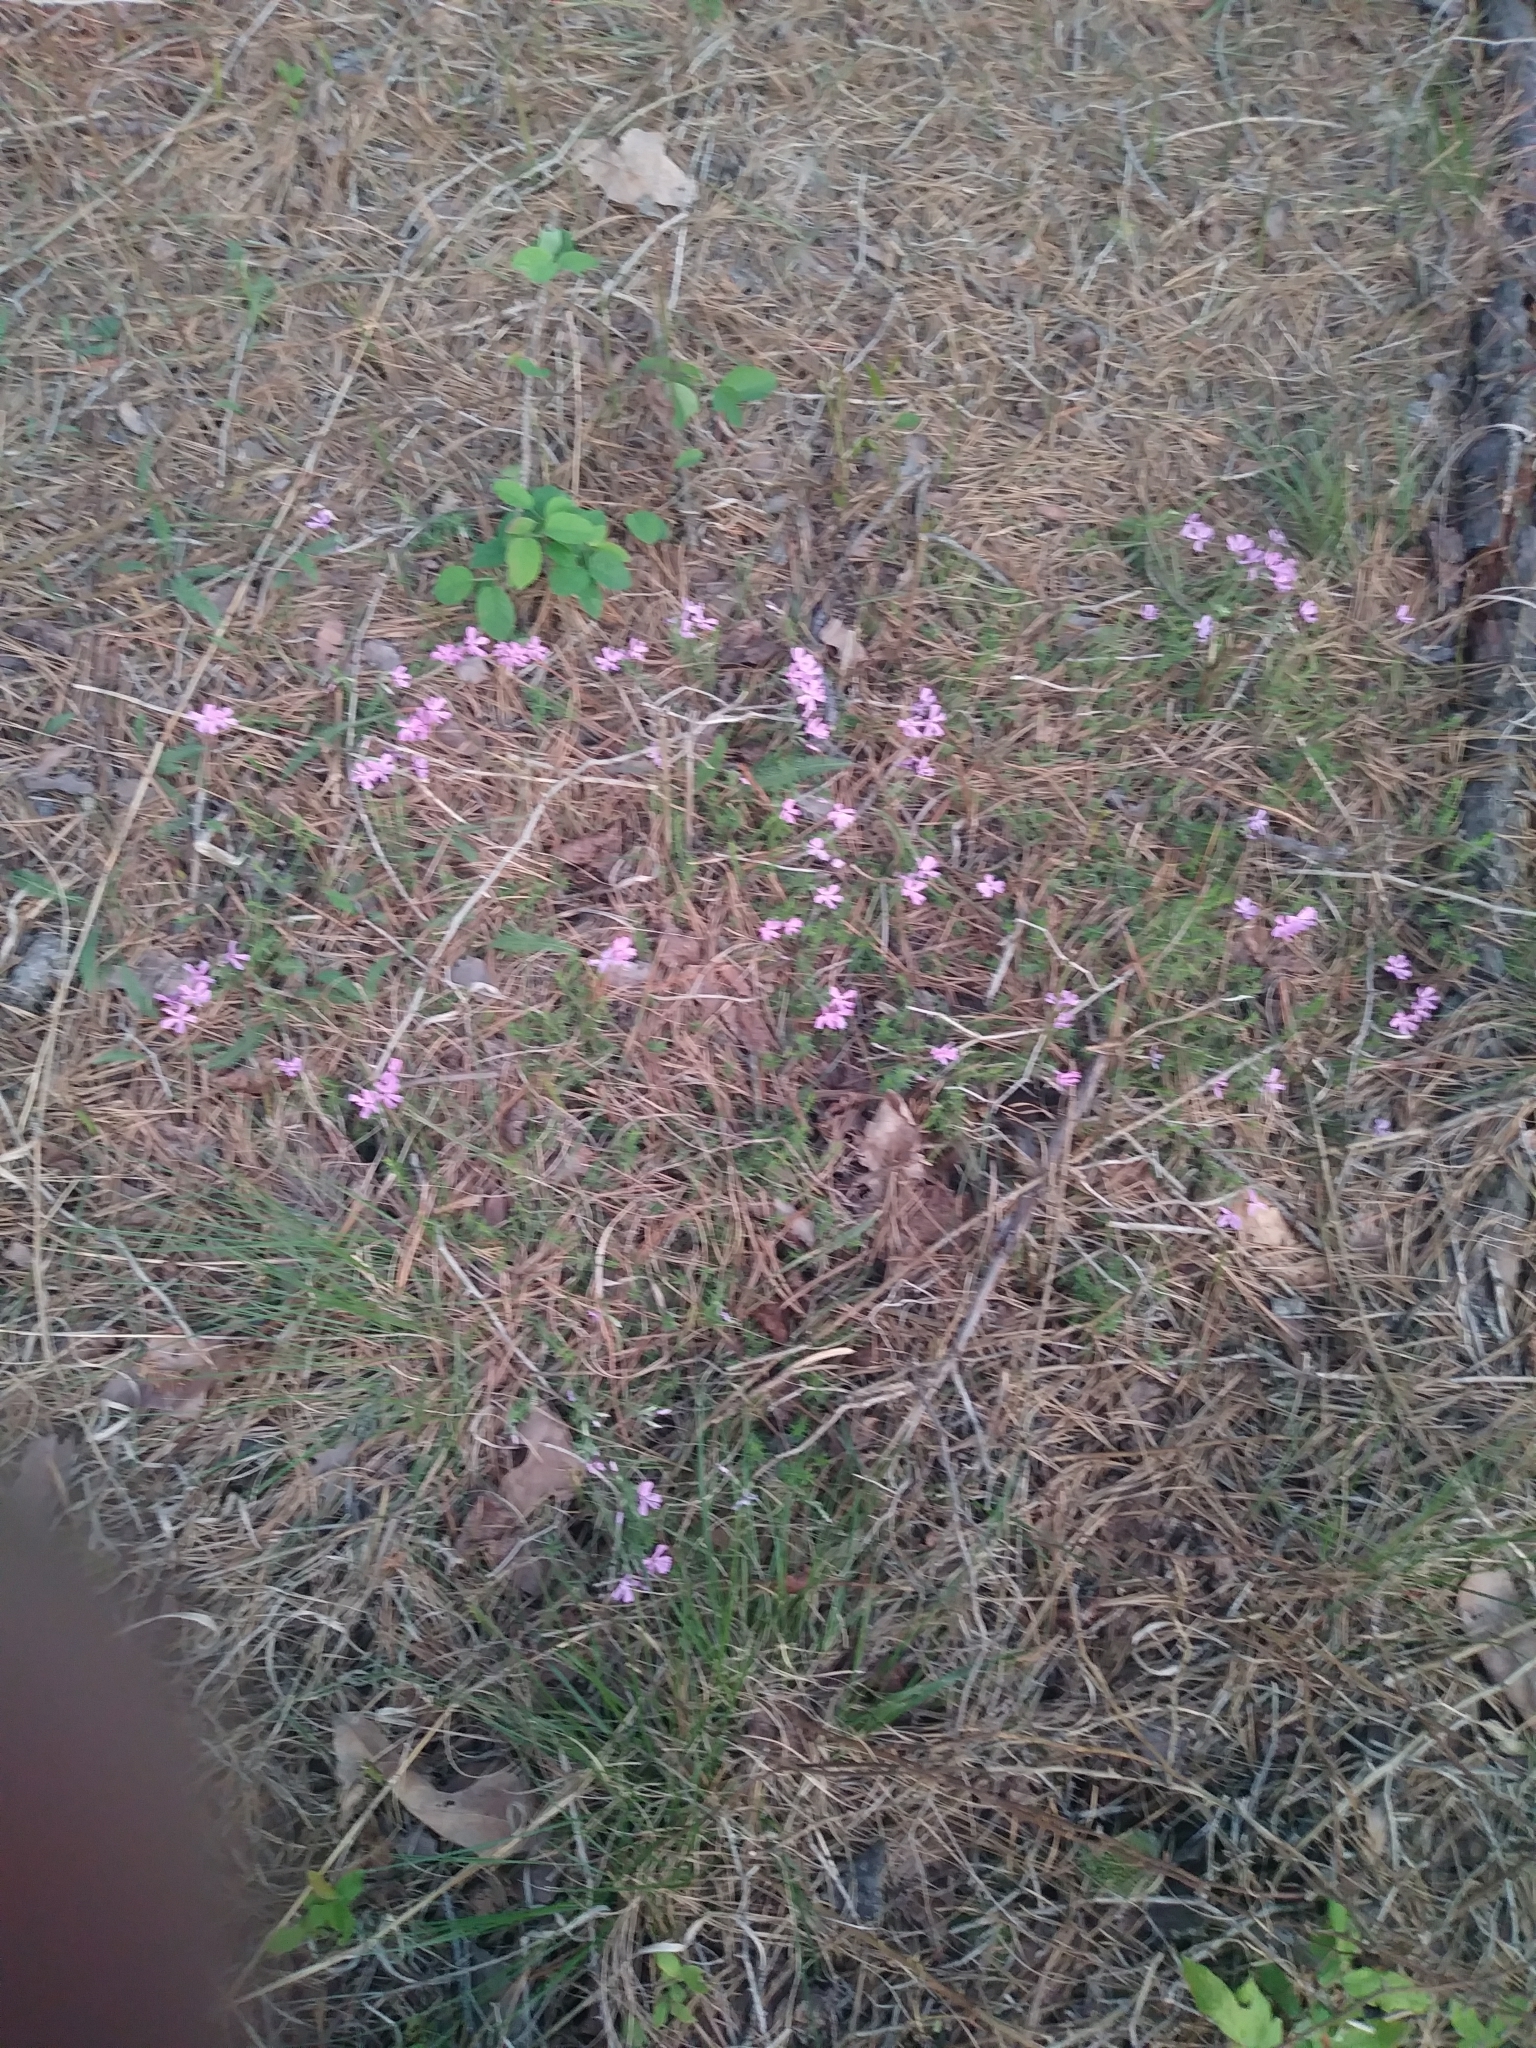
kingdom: Plantae
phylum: Tracheophyta
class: Magnoliopsida
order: Ericales
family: Polemoniaceae
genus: Phlox
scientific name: Phlox subulata
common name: Moss phlox
